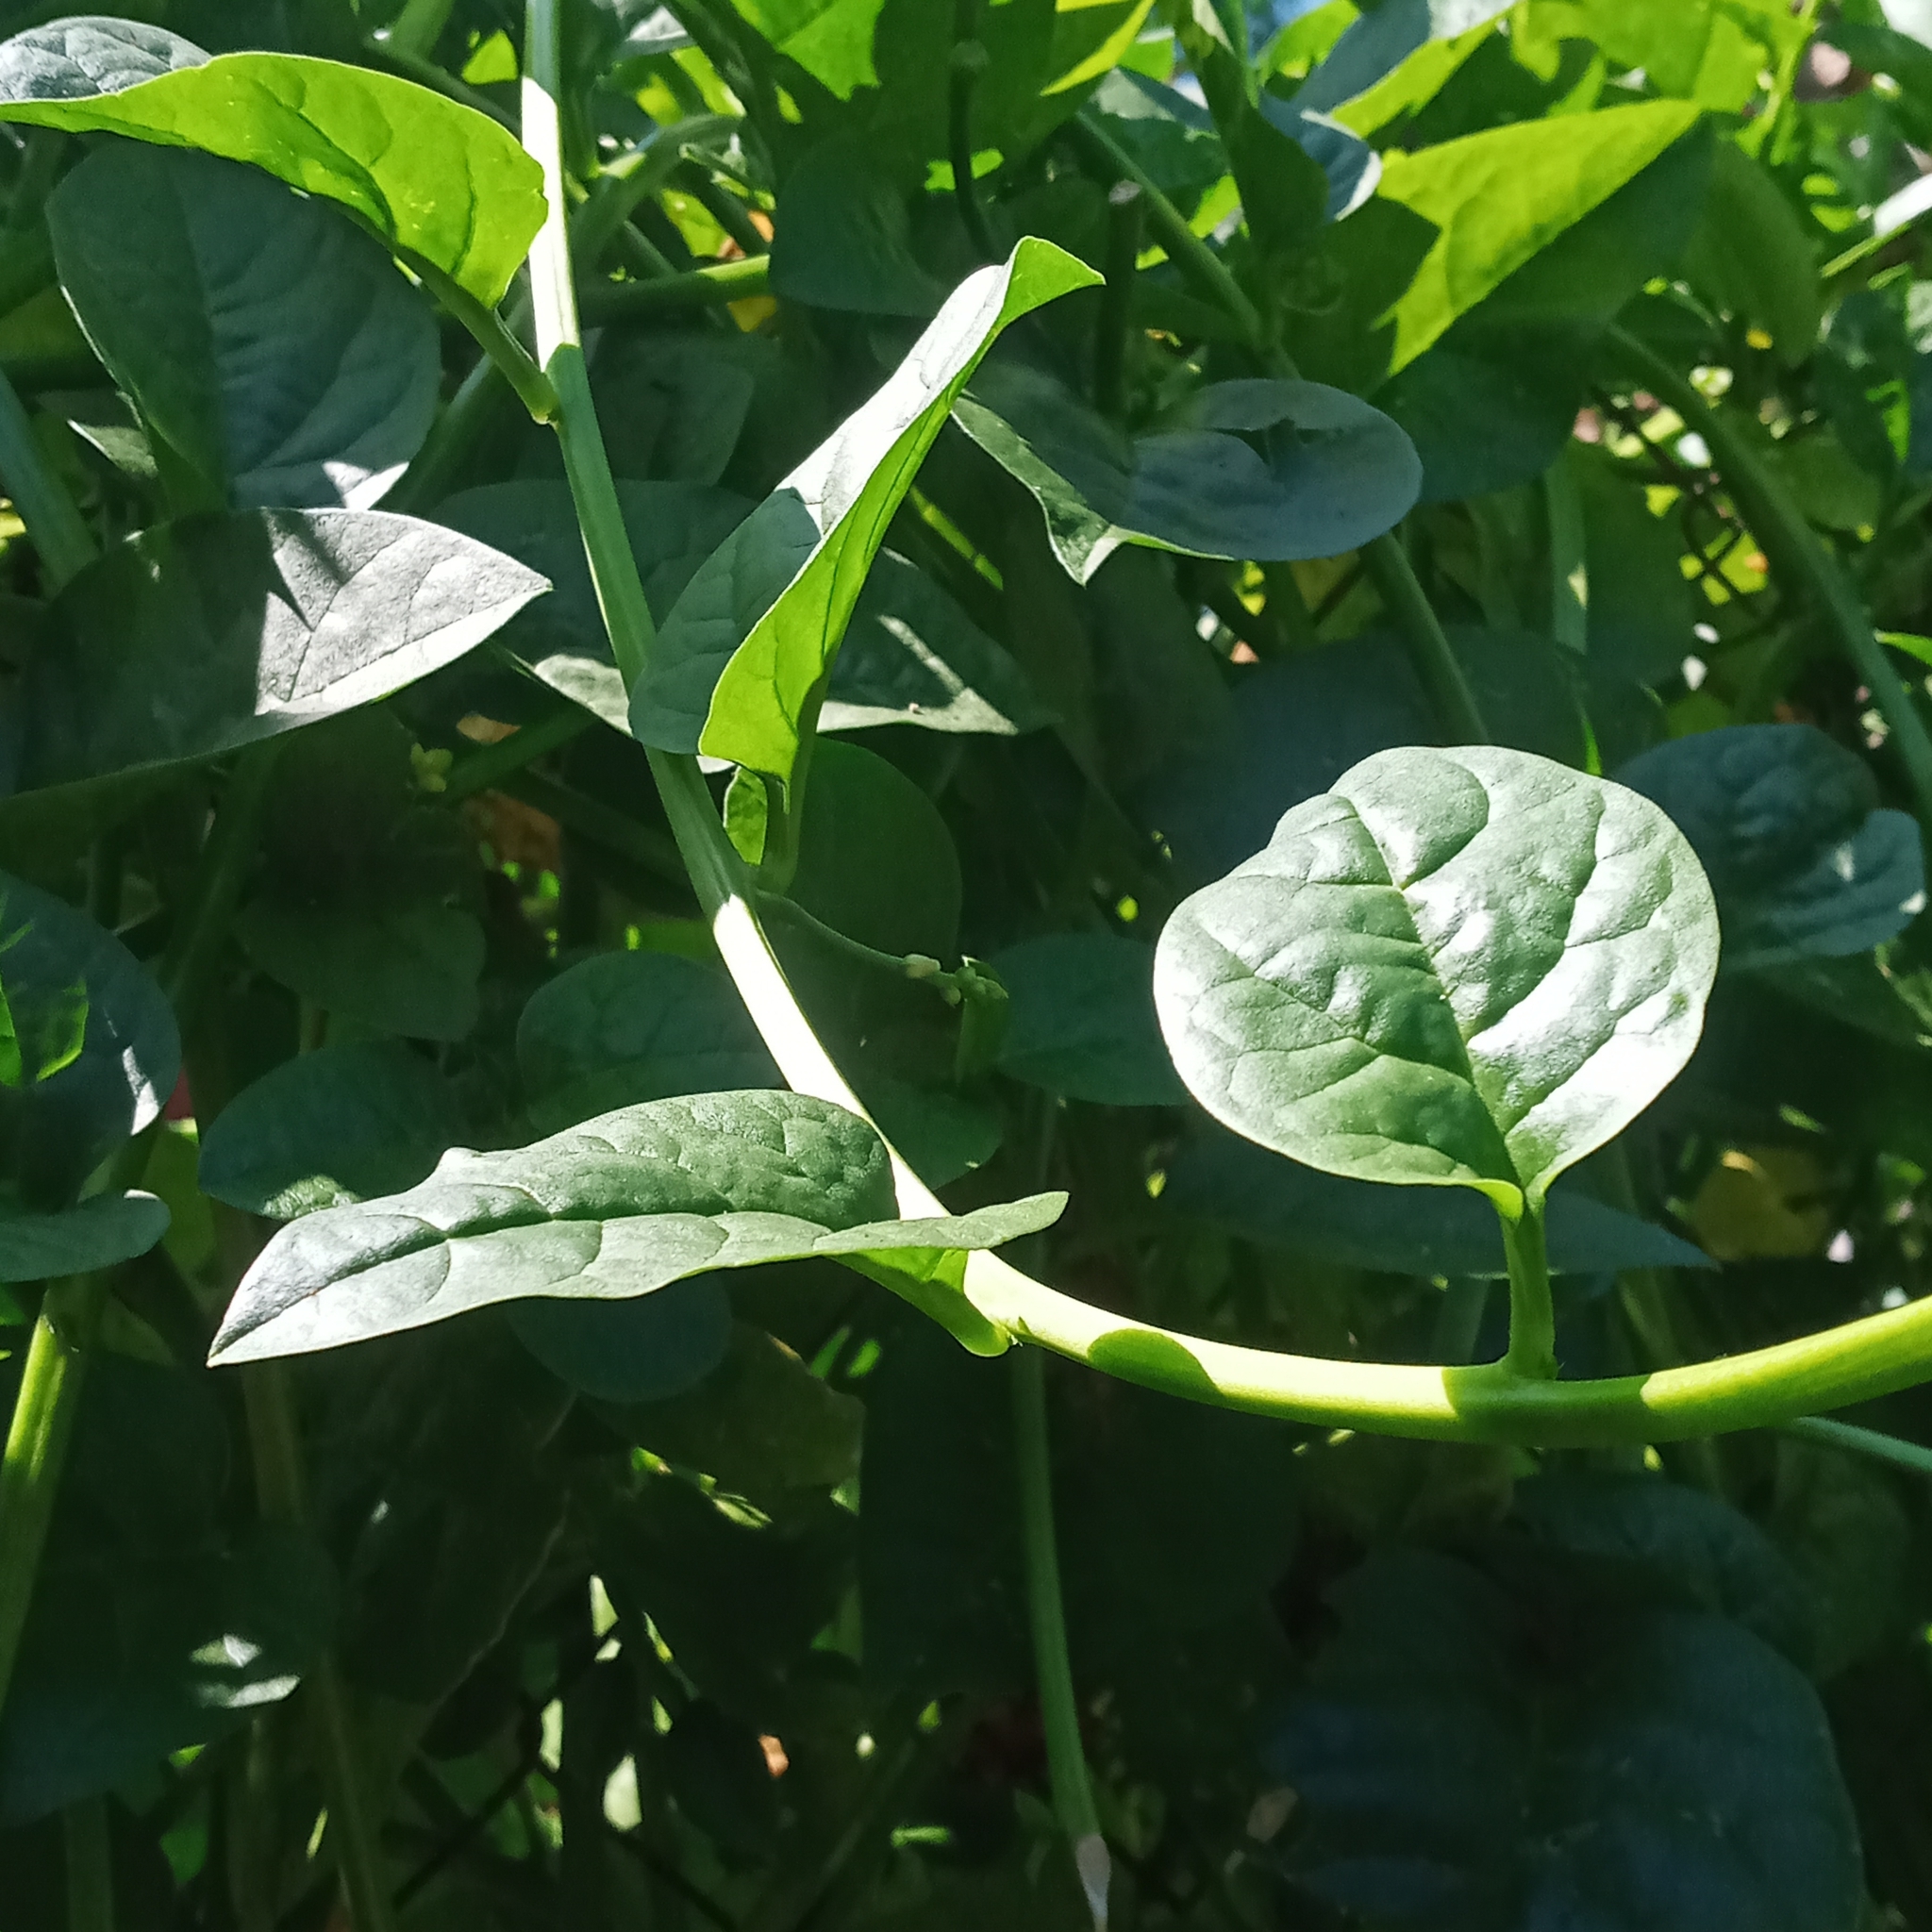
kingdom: Plantae
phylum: Tracheophyta
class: Magnoliopsida
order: Caryophyllales
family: Basellaceae
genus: Basella
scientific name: Basella alba
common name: Indian spinach
